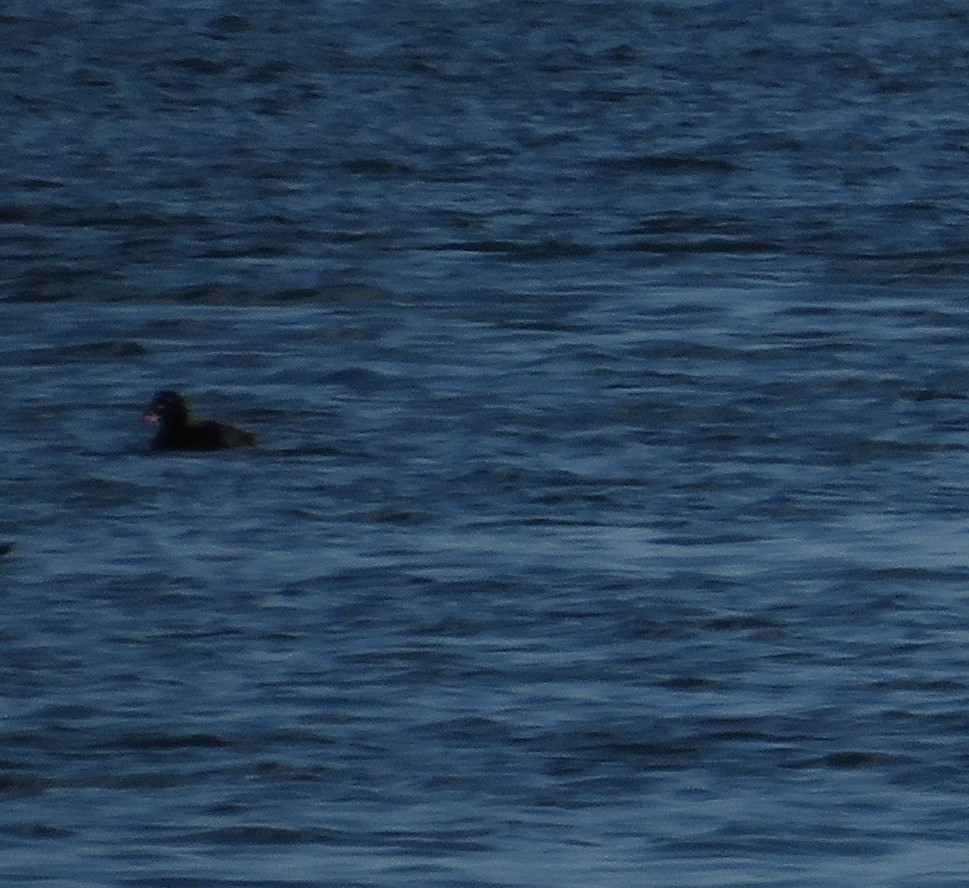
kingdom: Animalia
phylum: Chordata
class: Aves
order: Anseriformes
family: Anatidae
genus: Melanitta
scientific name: Melanitta deglandi
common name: White-winged scoter
